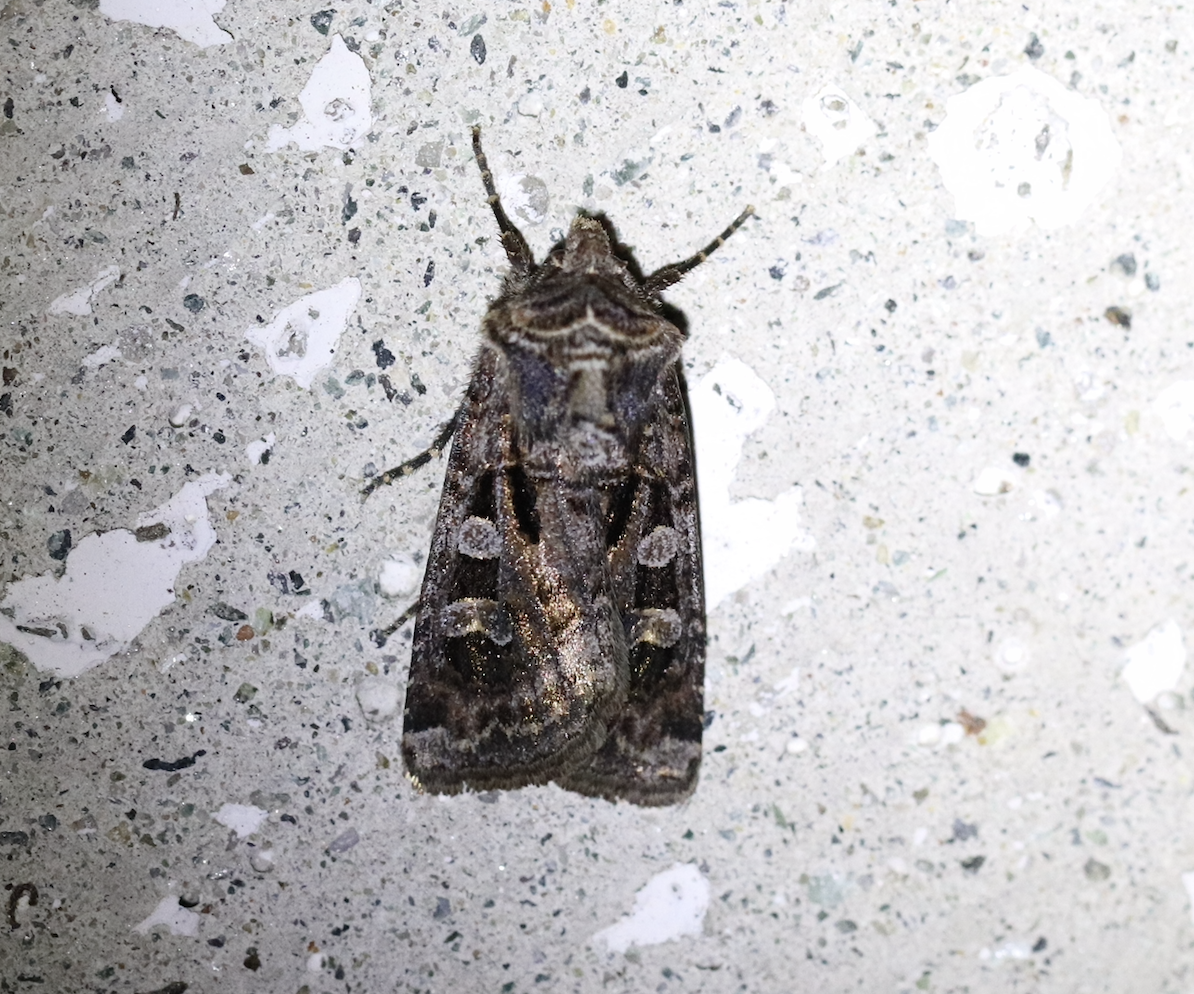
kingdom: Animalia
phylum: Arthropoda
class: Insecta
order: Lepidoptera
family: Noctuidae
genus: Euxoa
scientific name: Euxoa recussa
